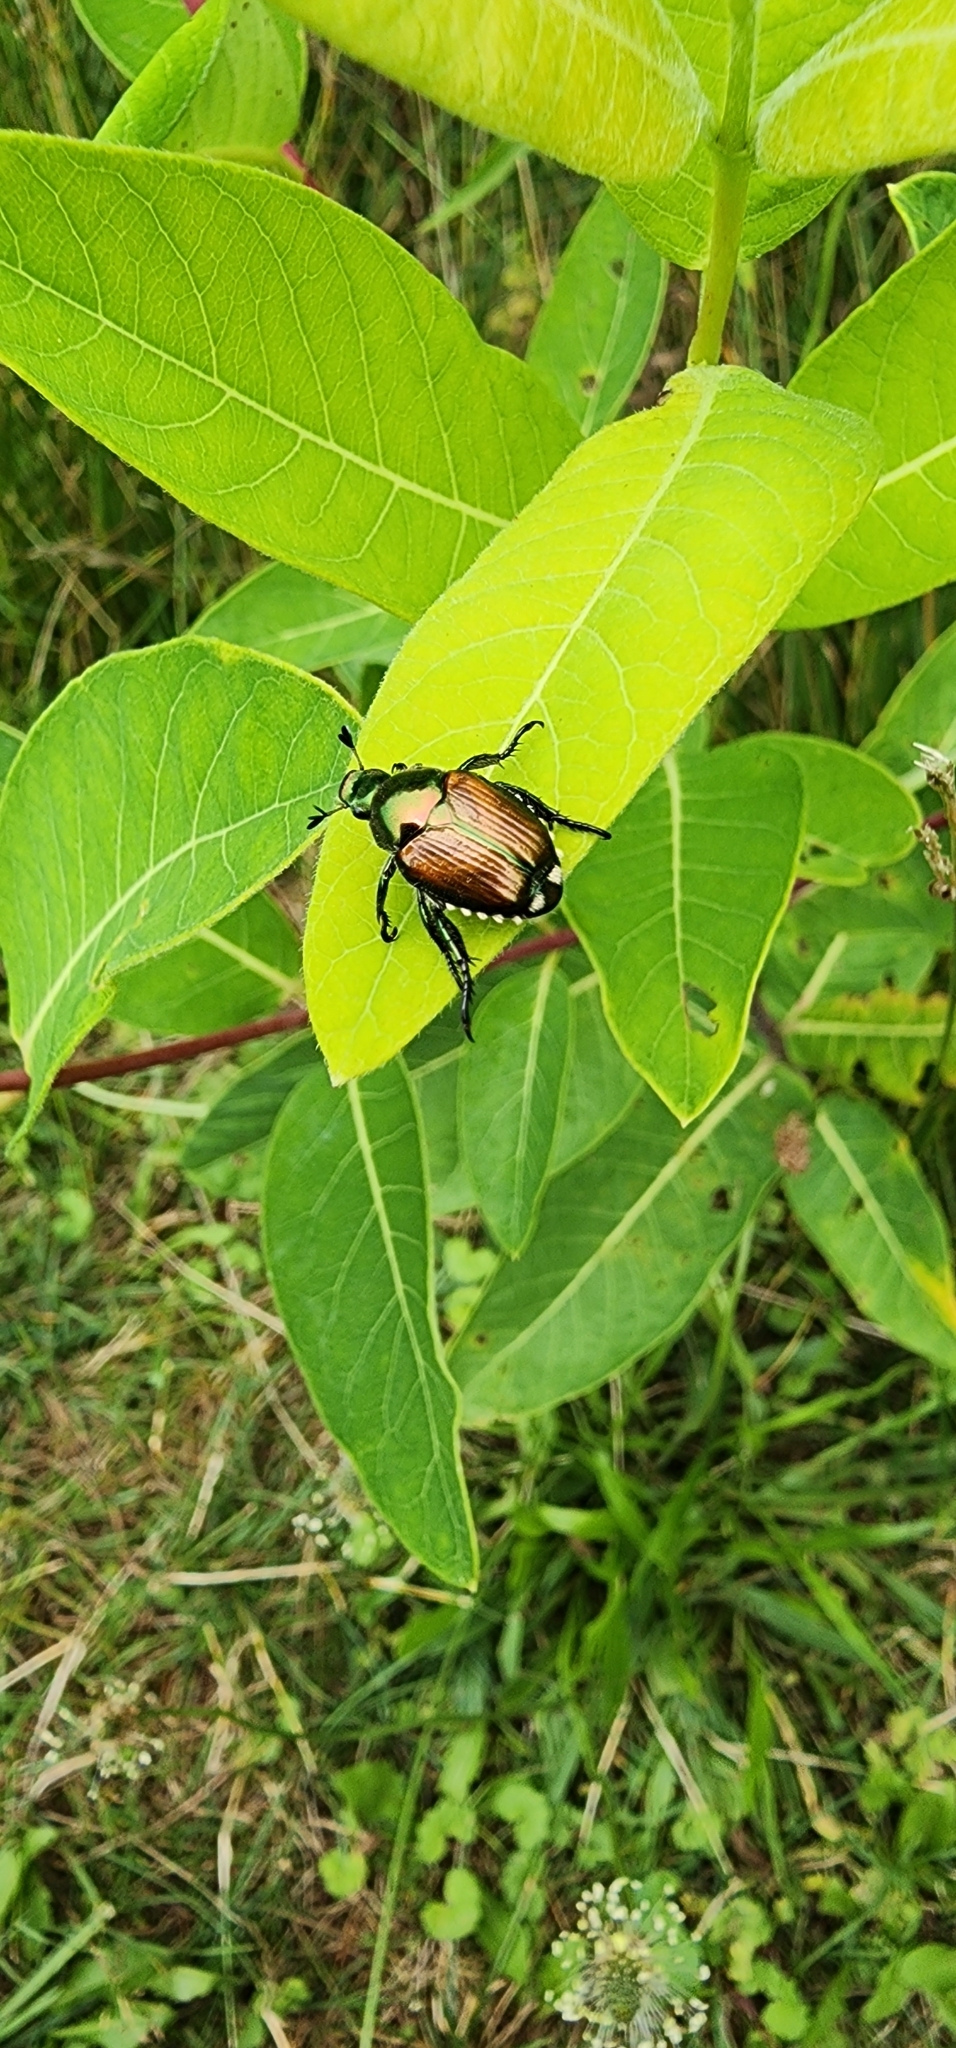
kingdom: Animalia
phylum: Arthropoda
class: Insecta
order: Coleoptera
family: Scarabaeidae
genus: Popillia
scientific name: Popillia japonica
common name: Japanese beetle
